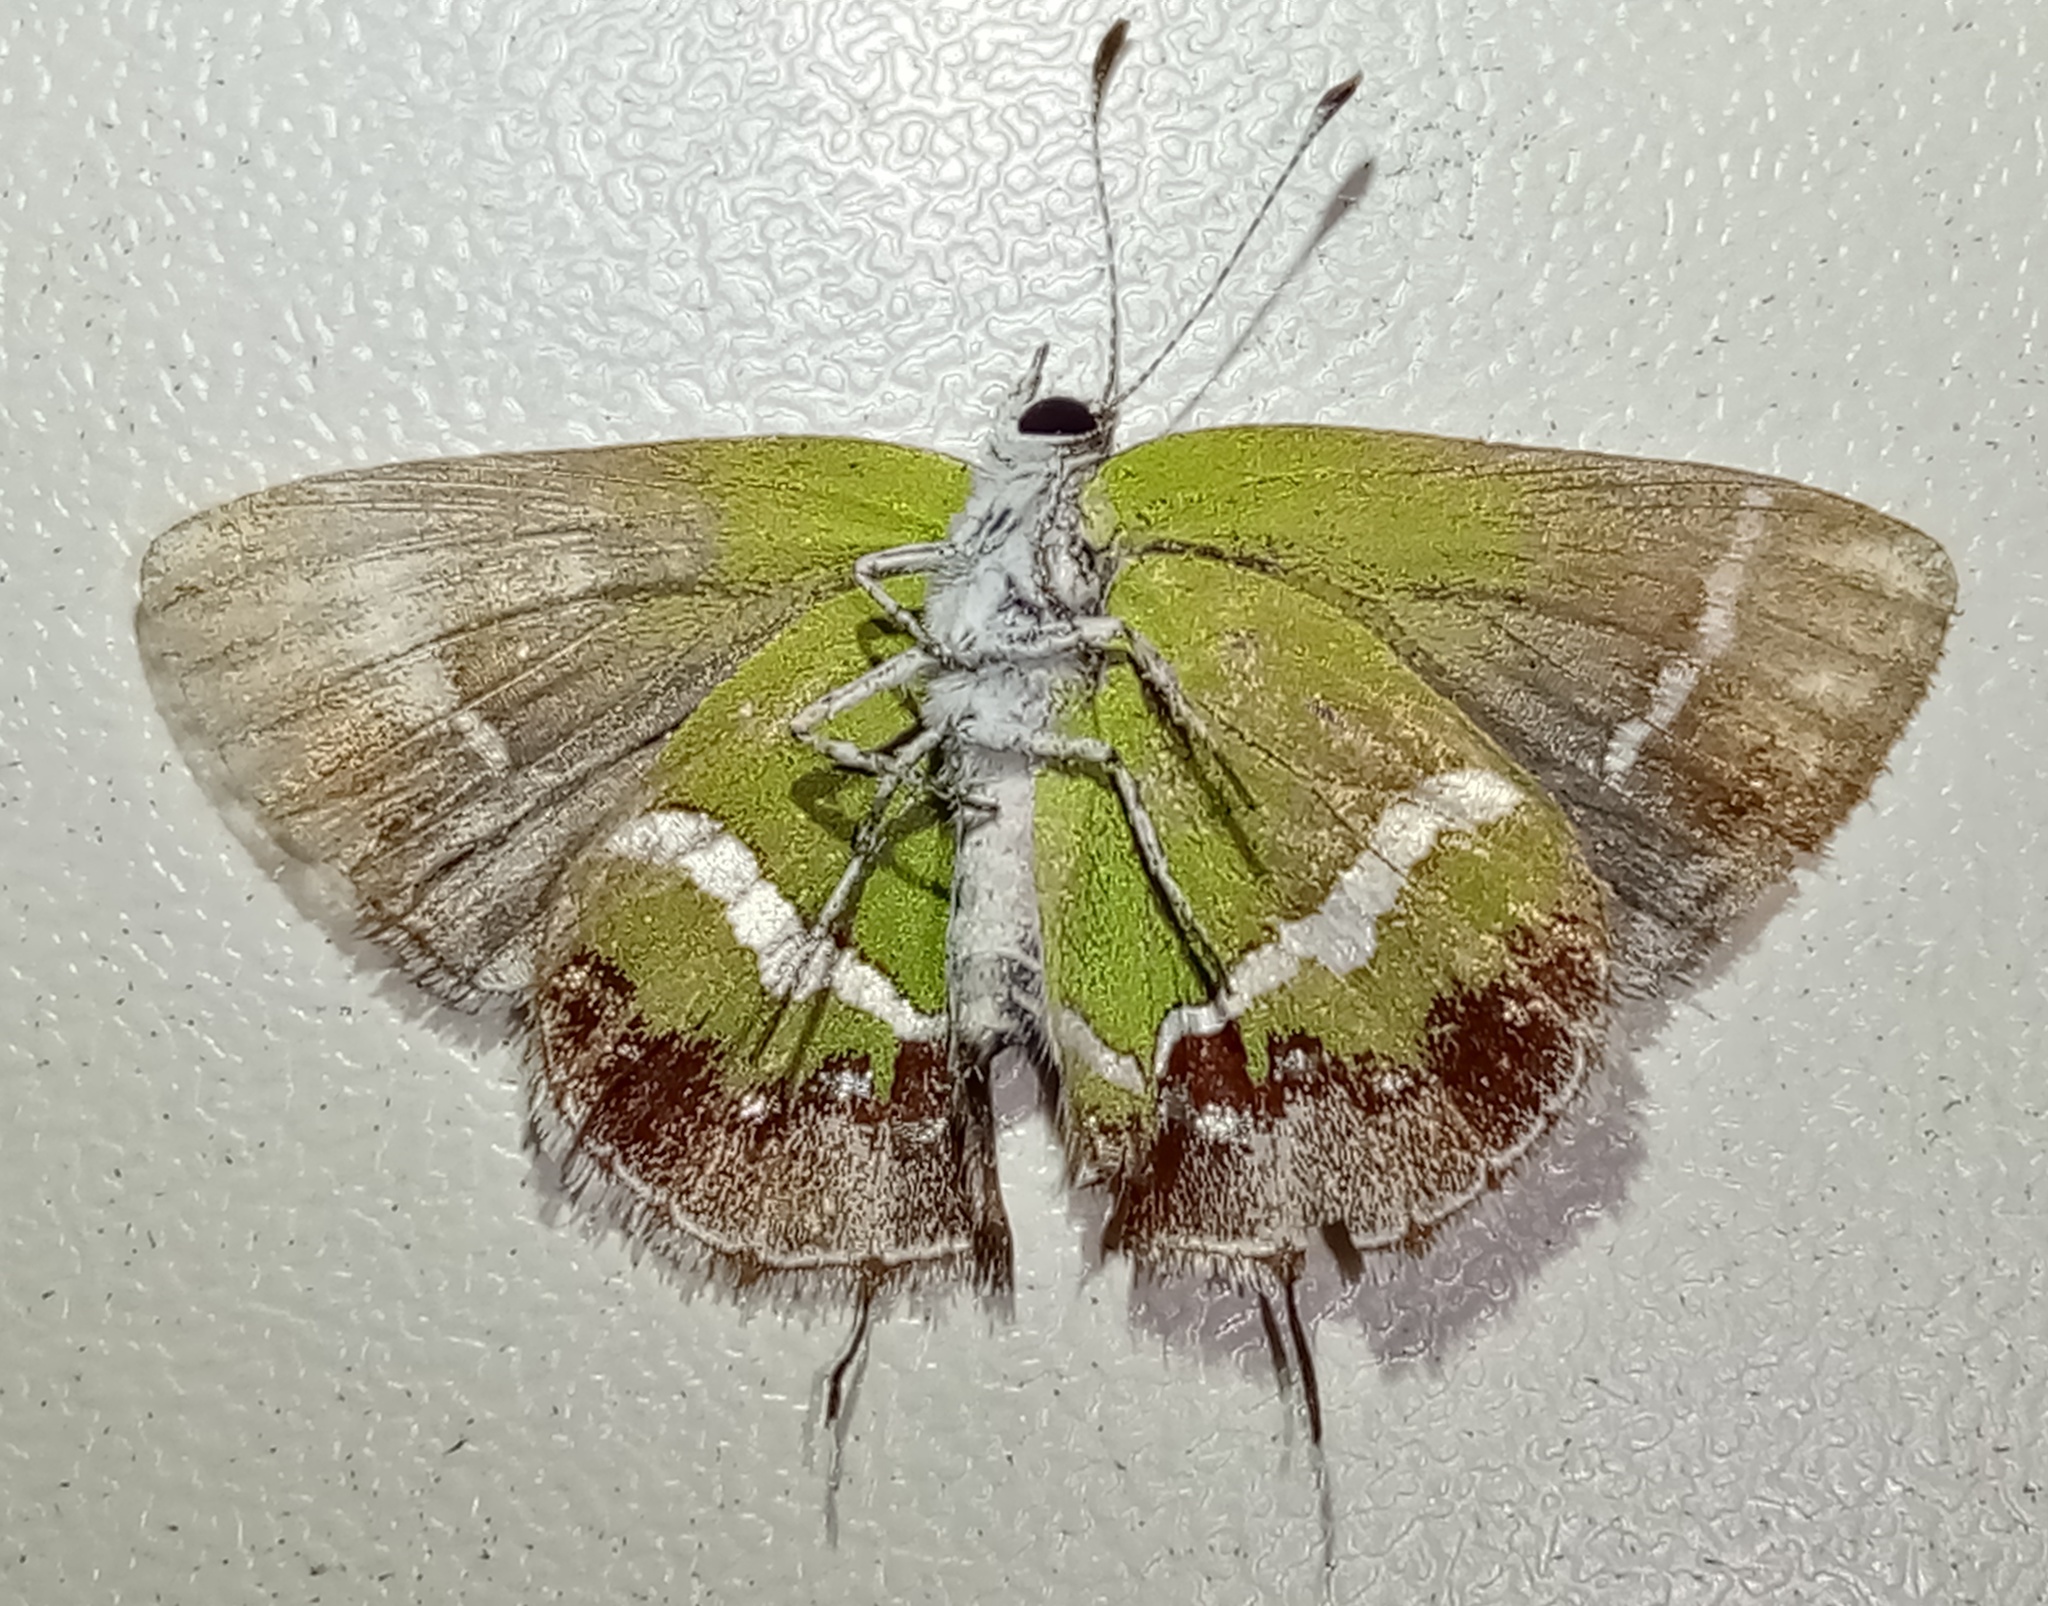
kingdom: Animalia
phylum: Arthropoda
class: Insecta
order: Lepidoptera
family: Lycaenidae
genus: Chlorostrymon
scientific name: Chlorostrymon simaethis
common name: Silver-banded hairstreak
